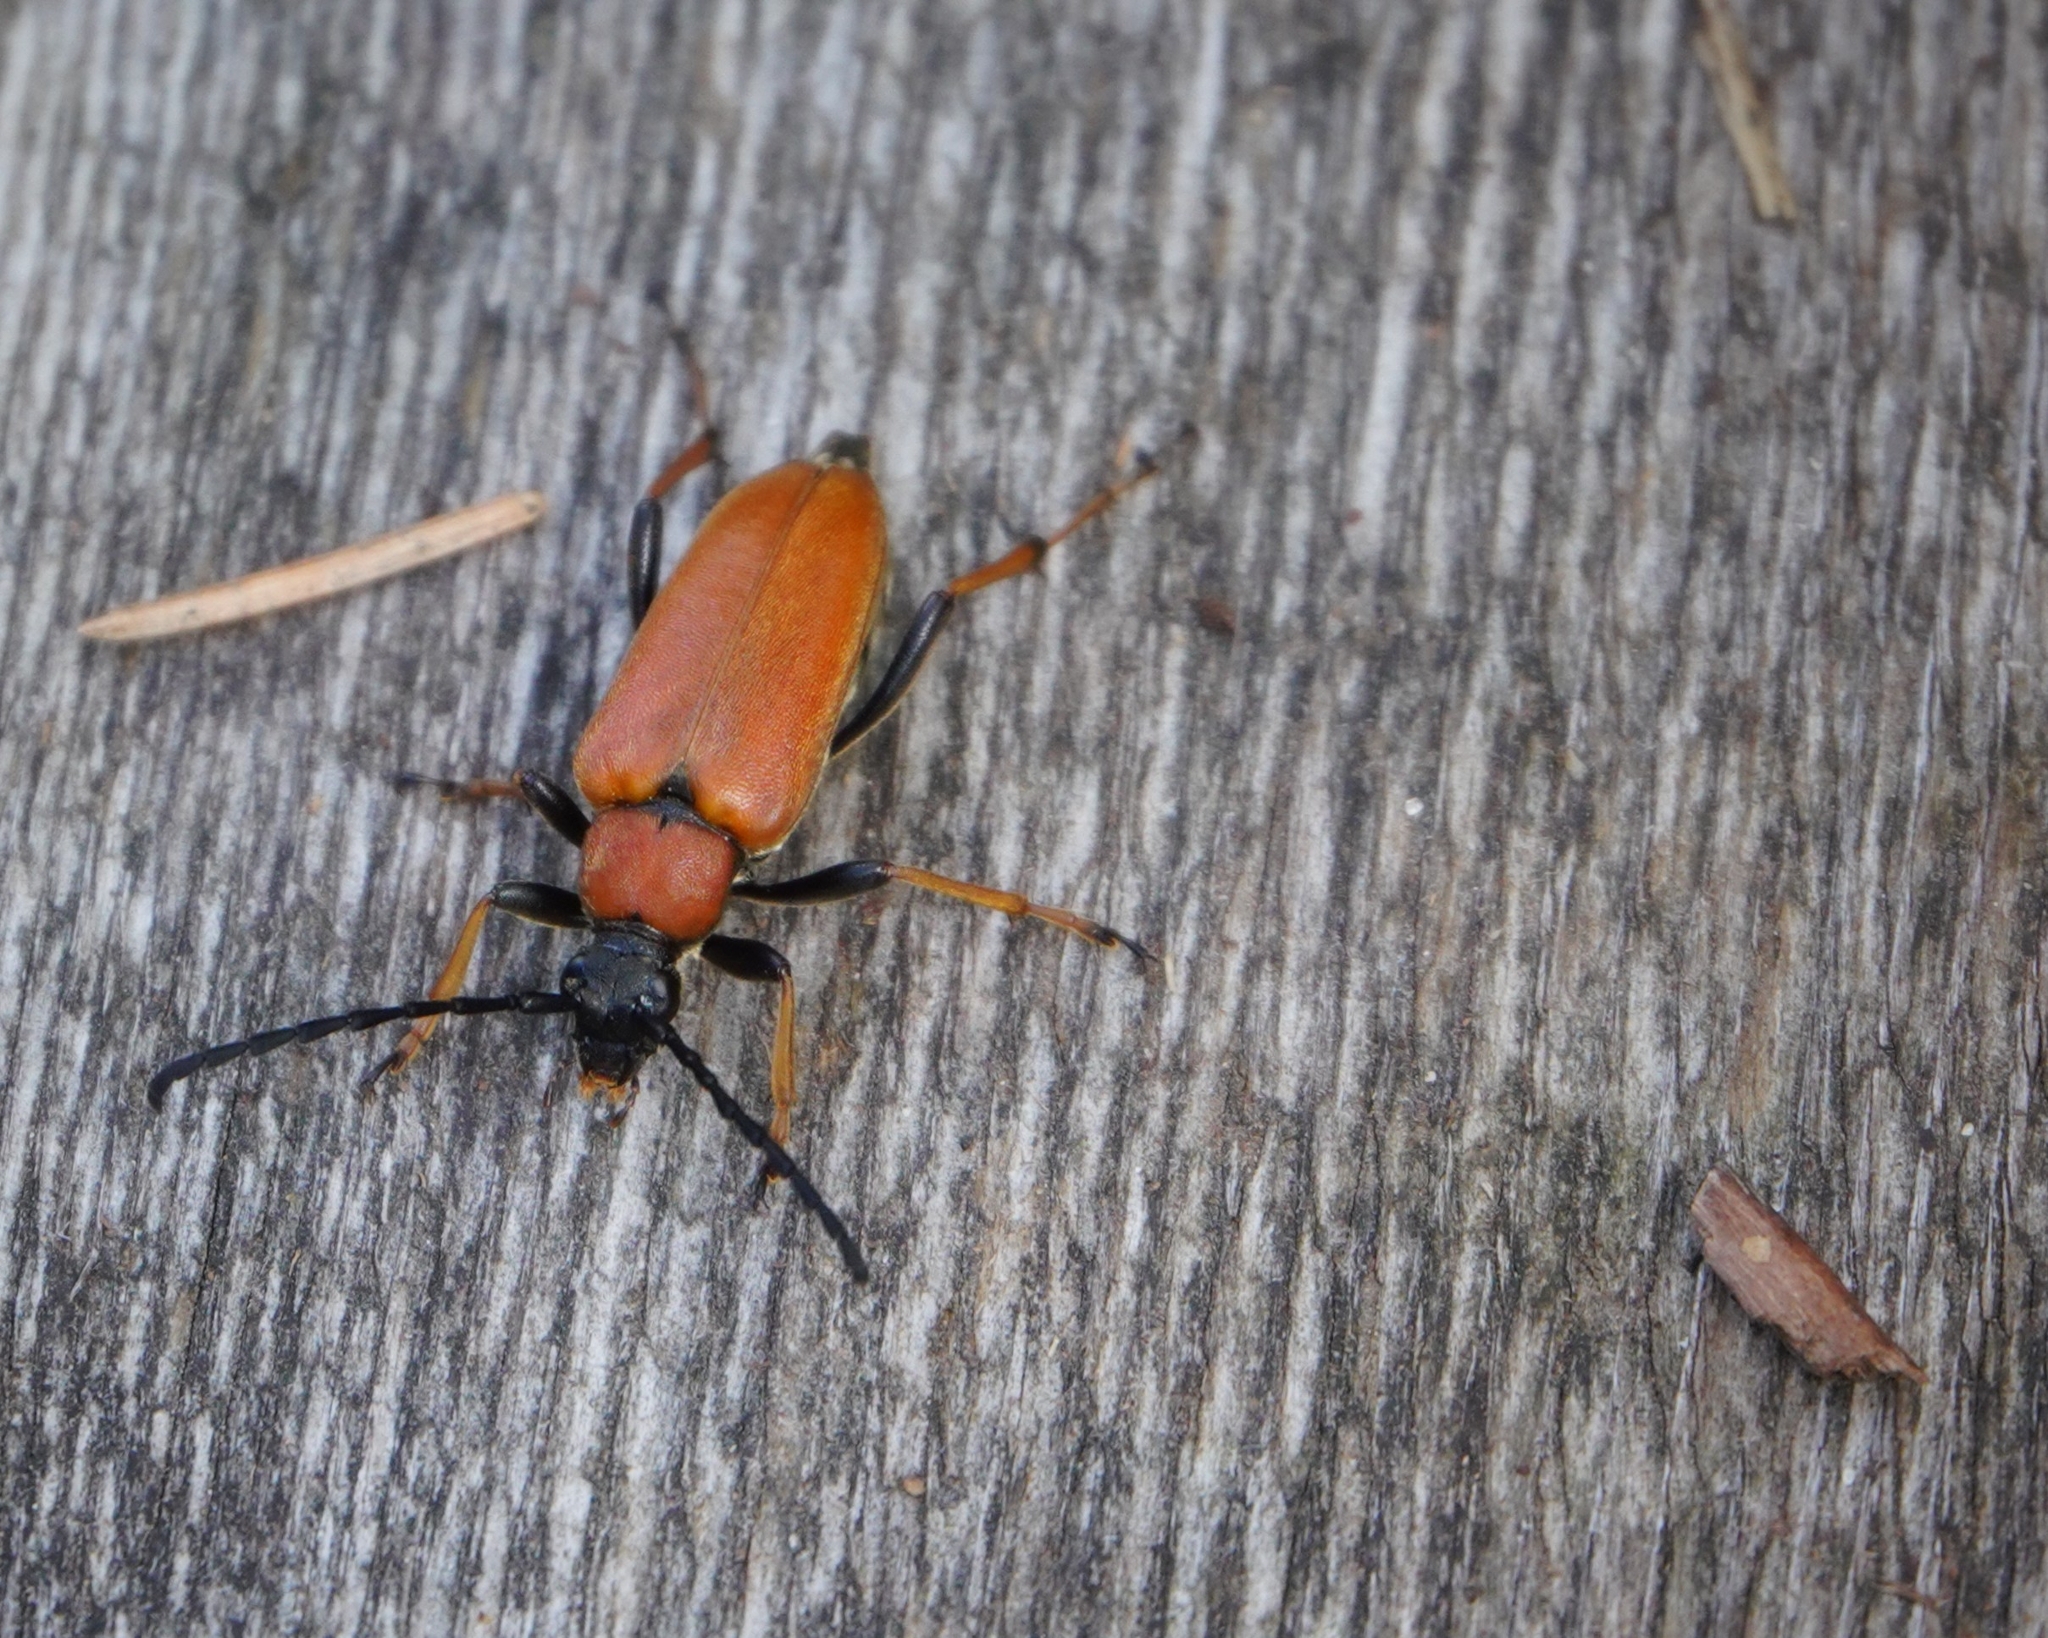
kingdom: Animalia
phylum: Arthropoda
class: Insecta
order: Coleoptera
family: Cerambycidae
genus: Stictoleptura
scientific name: Stictoleptura rubra
